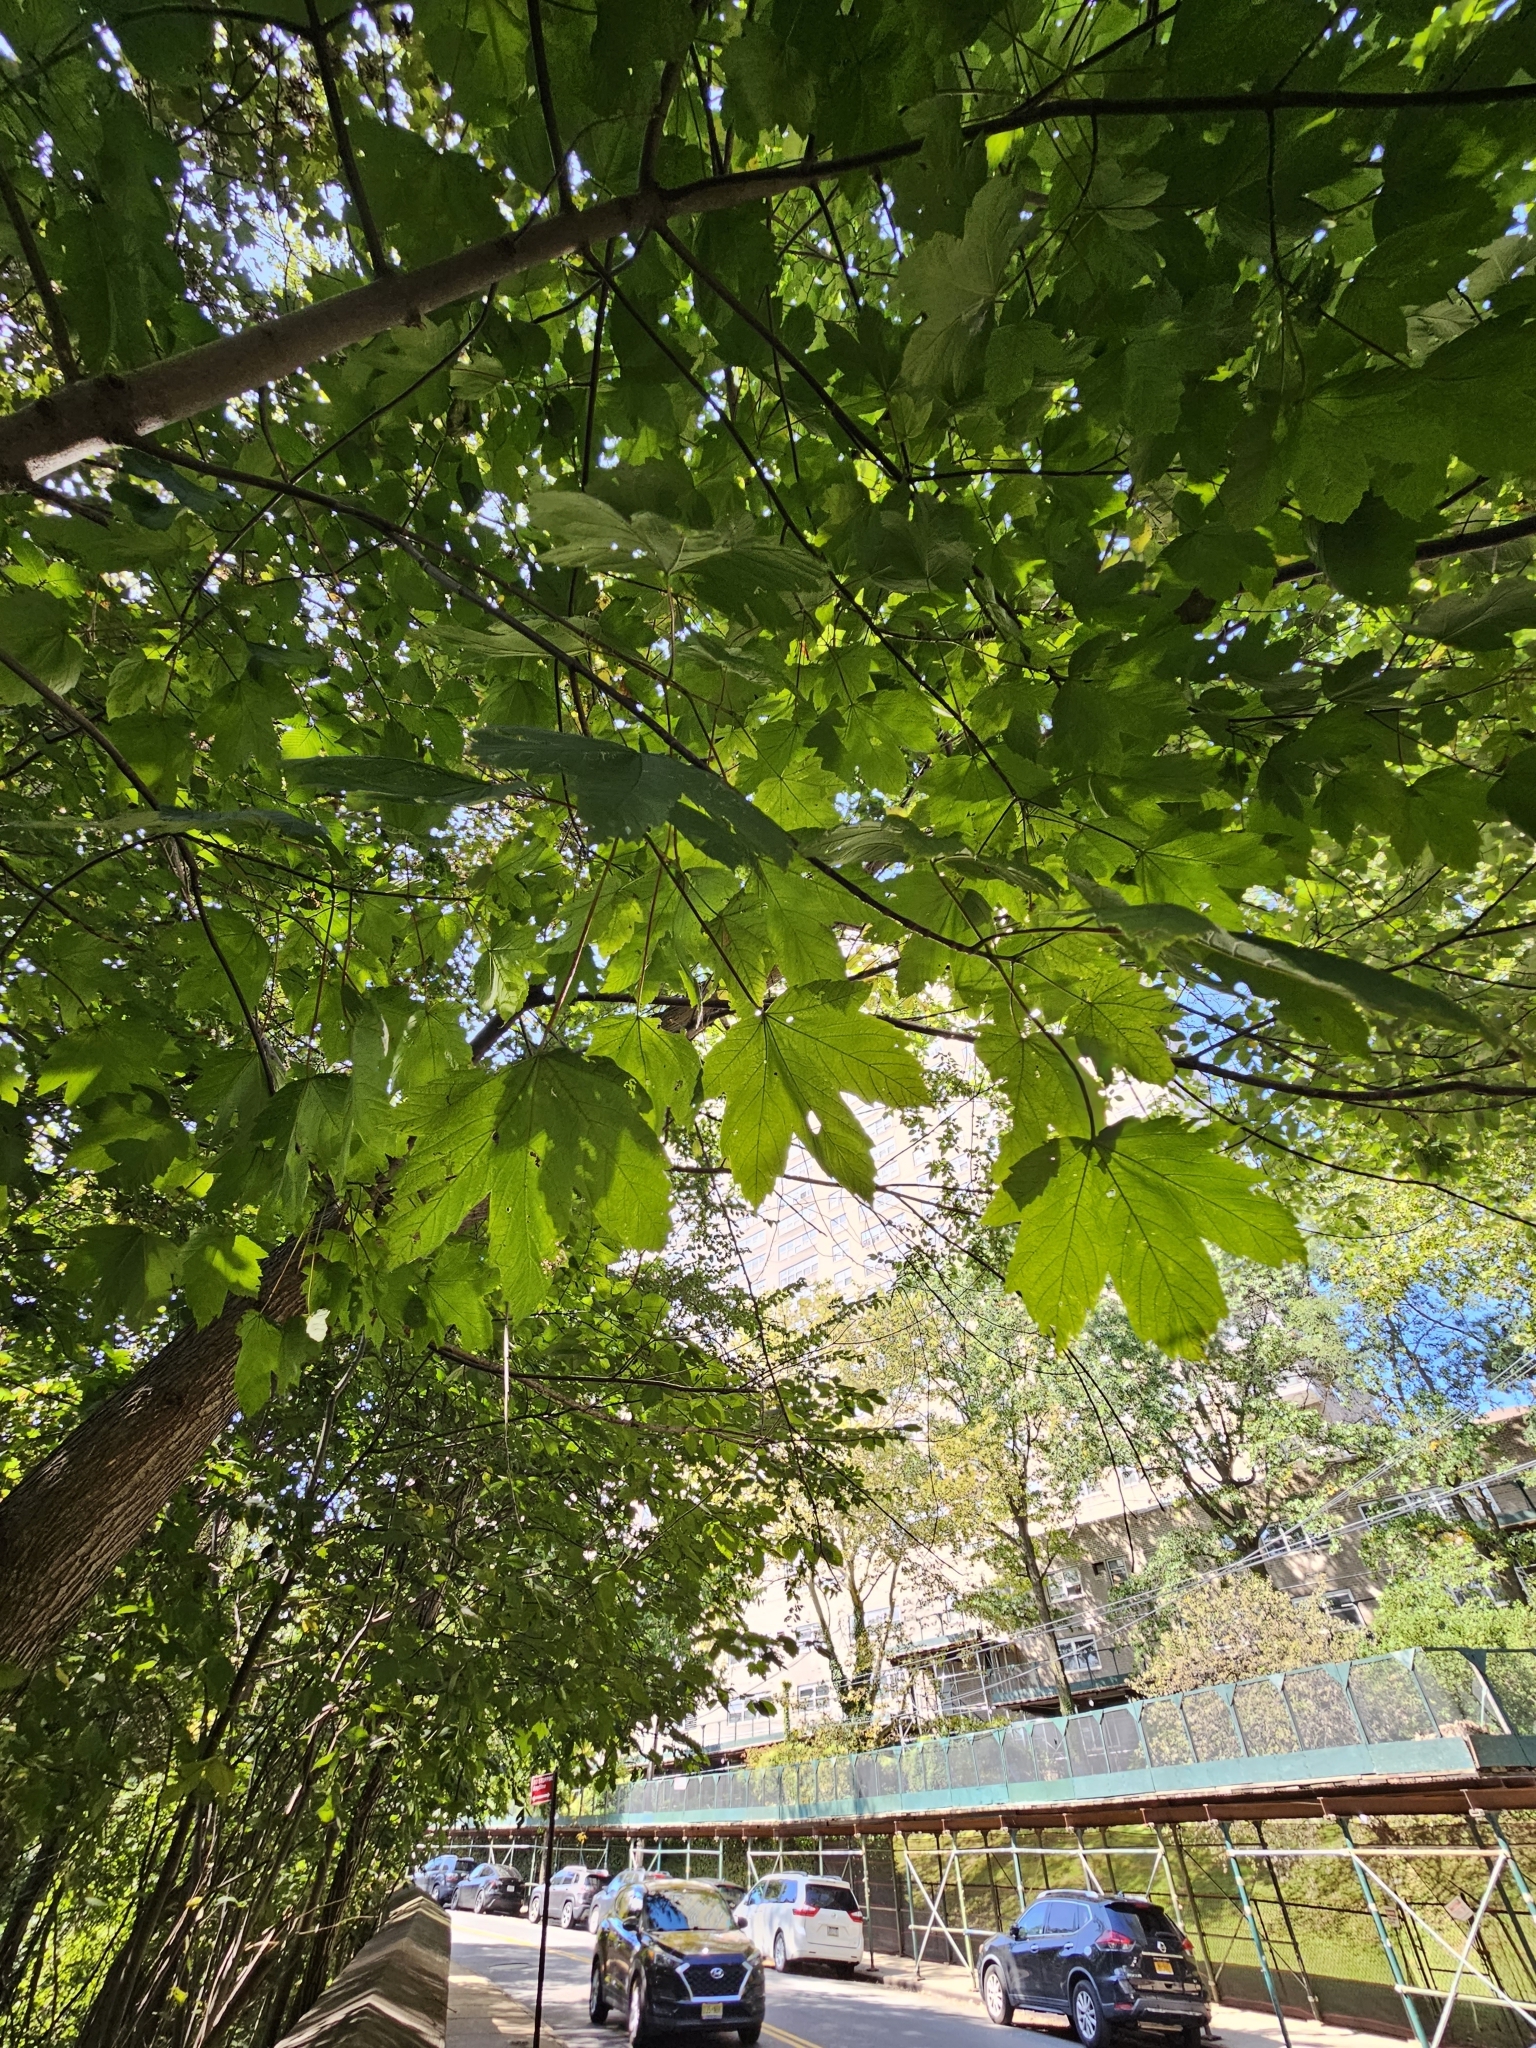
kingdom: Plantae
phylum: Tracheophyta
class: Magnoliopsida
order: Sapindales
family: Sapindaceae
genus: Acer
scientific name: Acer pseudoplatanus
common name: Sycamore
